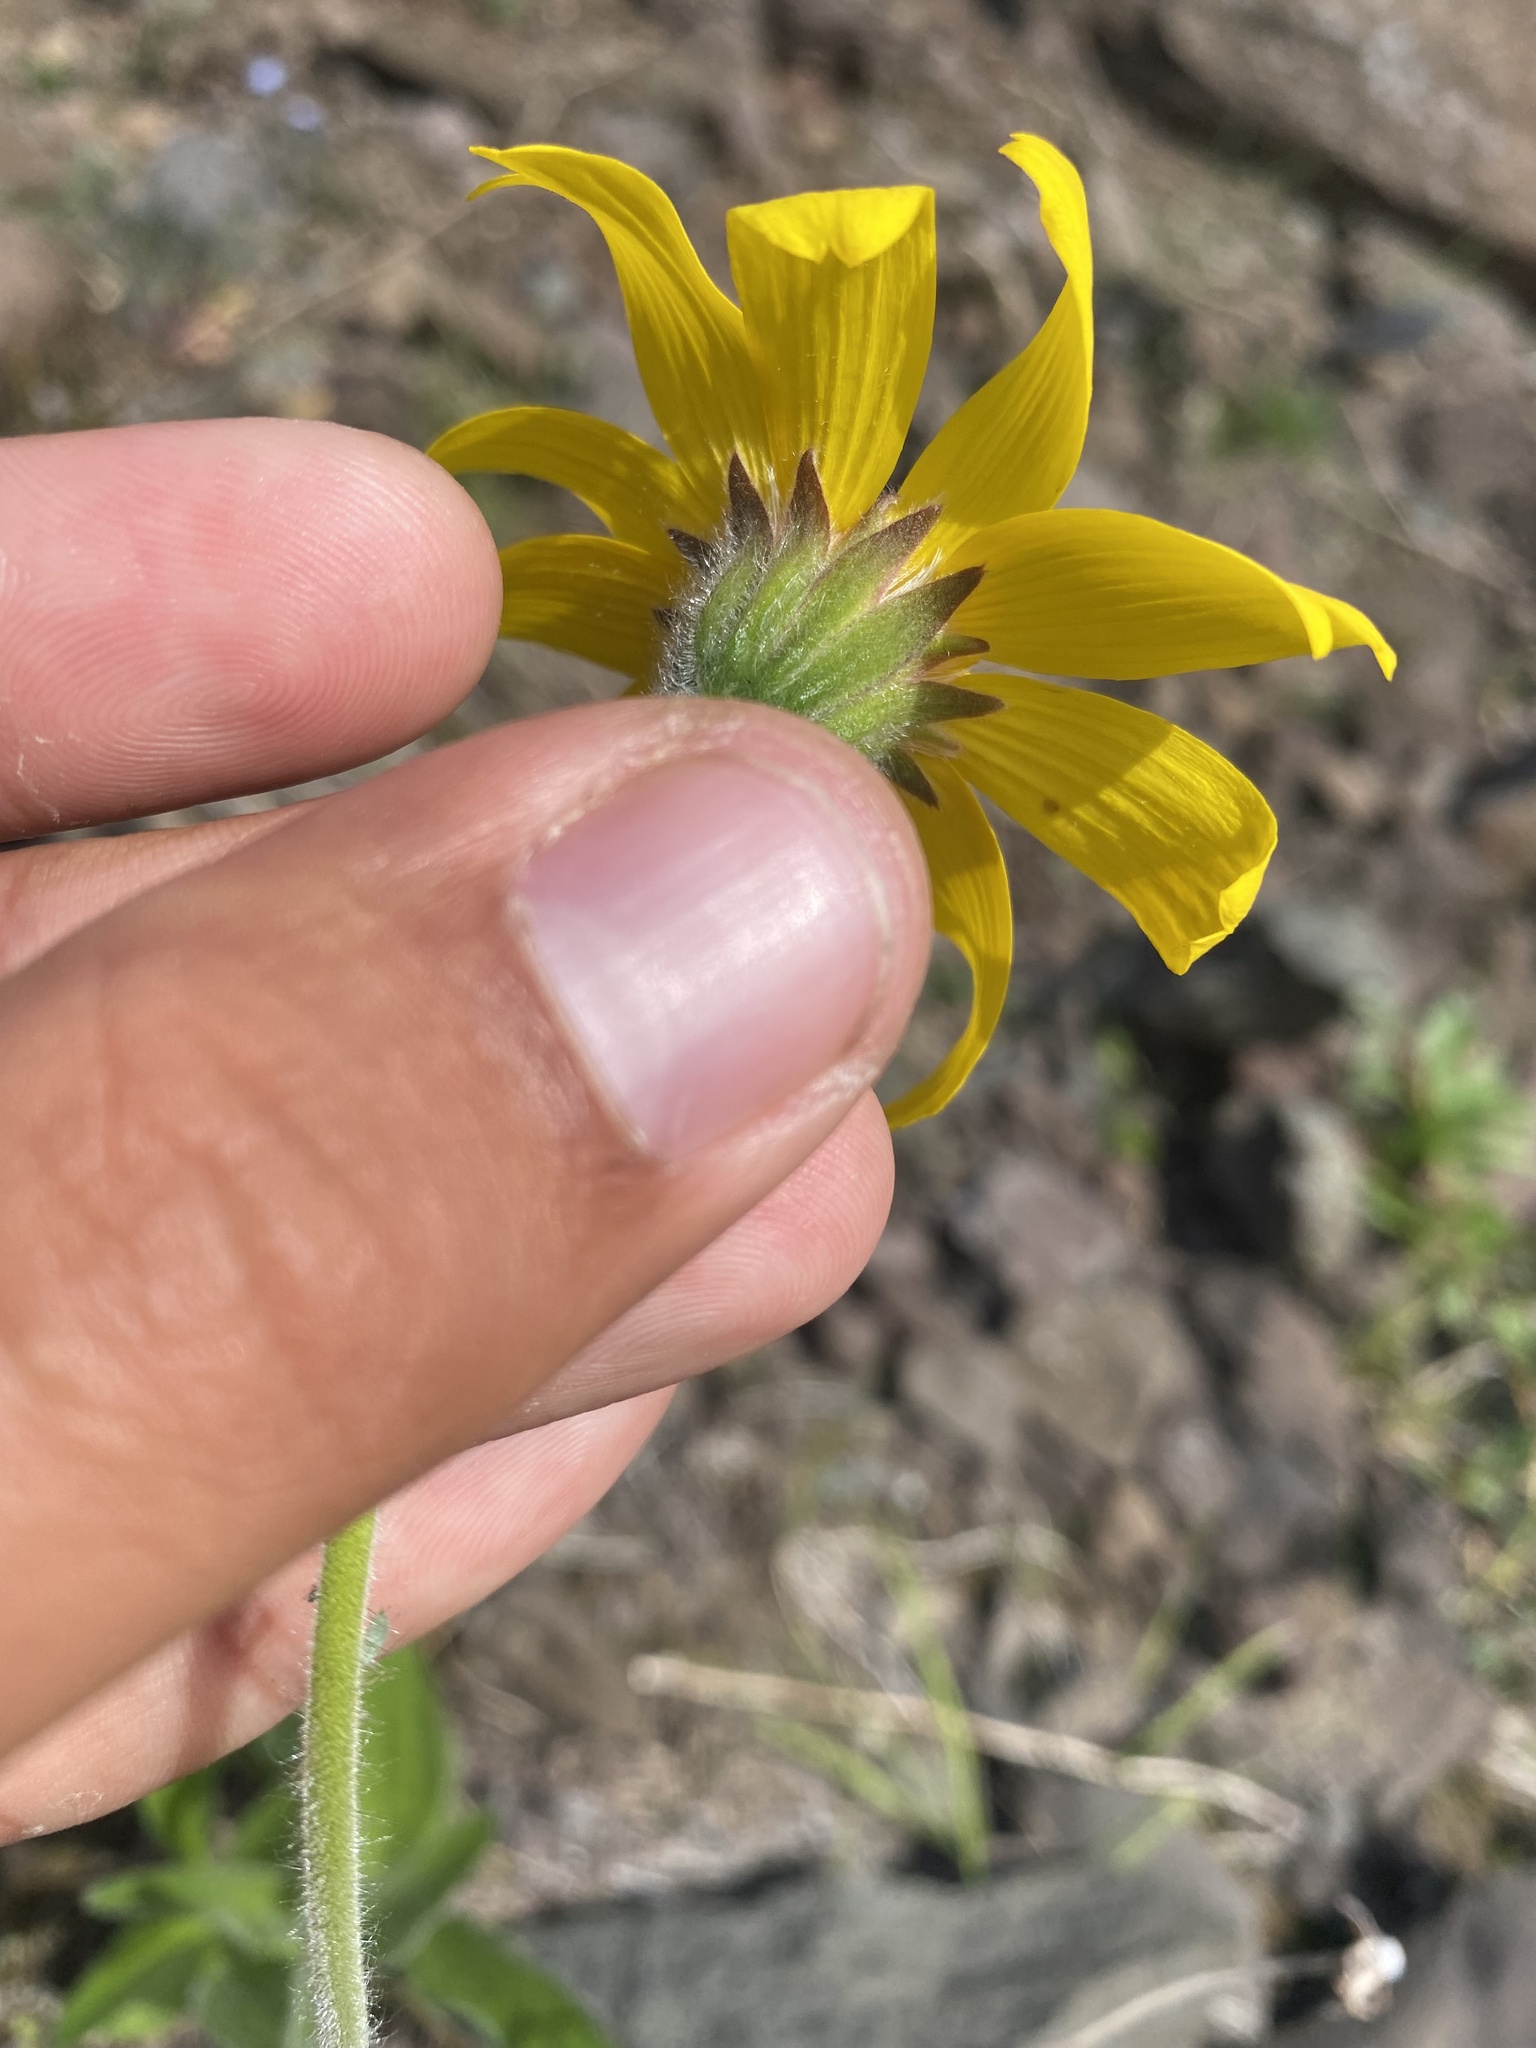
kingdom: Plantae
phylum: Tracheophyta
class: Magnoliopsida
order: Asterales
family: Asteraceae
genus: Arnica
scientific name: Arnica angustifolia
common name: Arctic arnica
